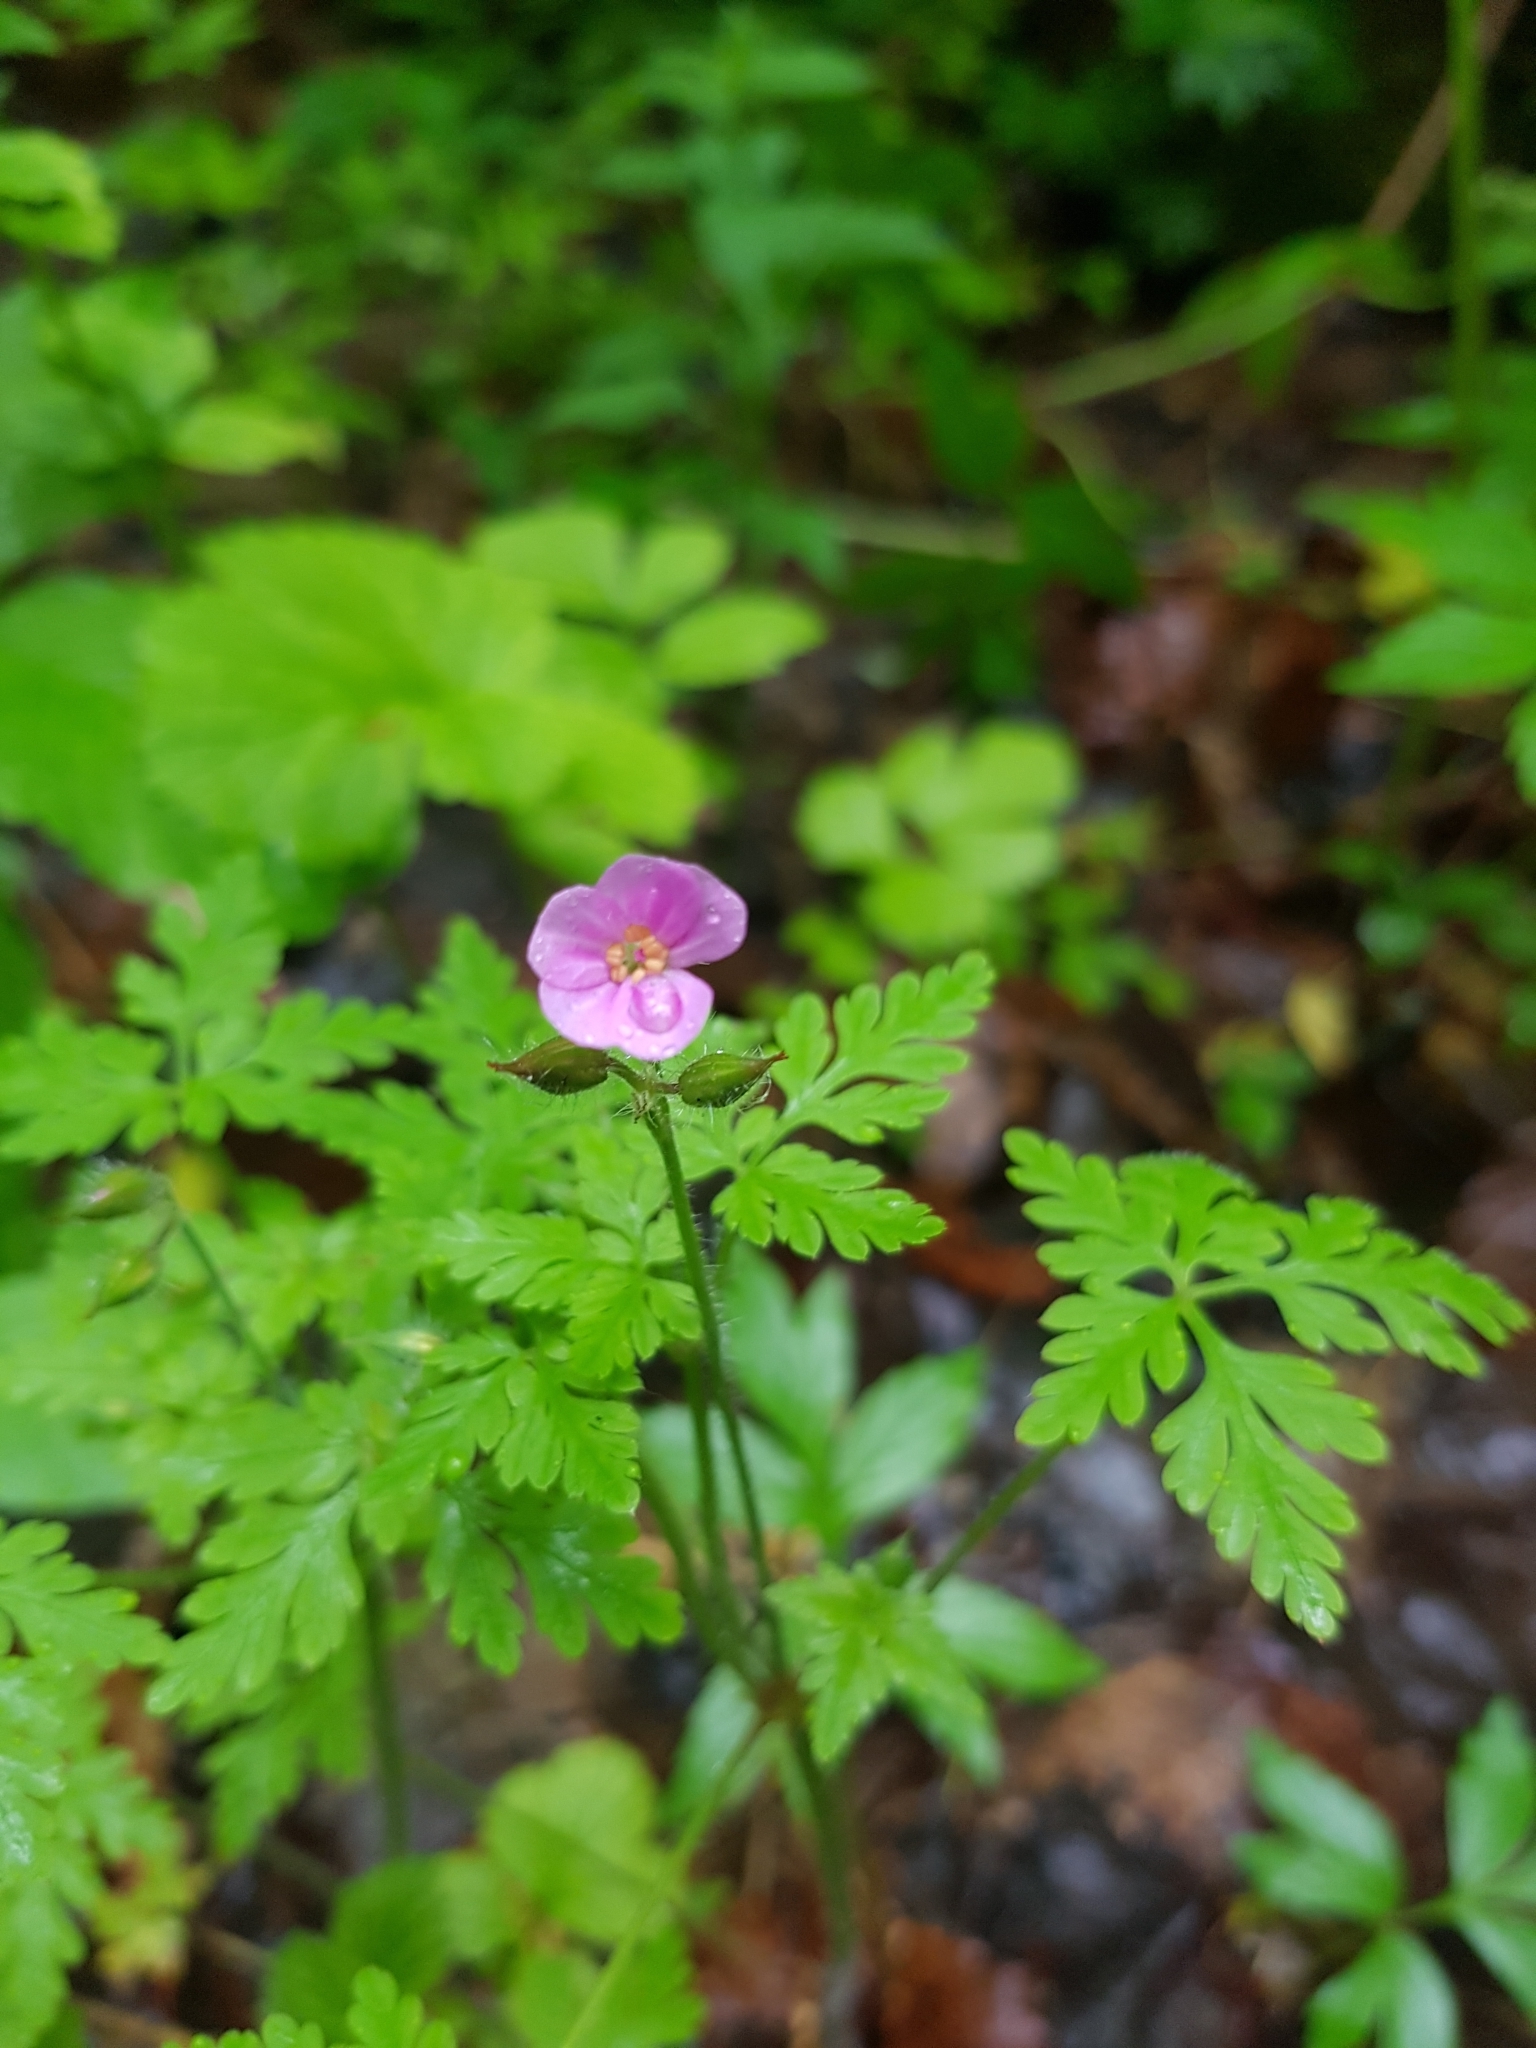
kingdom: Plantae
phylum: Tracheophyta
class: Magnoliopsida
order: Geraniales
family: Geraniaceae
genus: Geranium
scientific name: Geranium robertianum
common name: Herb-robert
